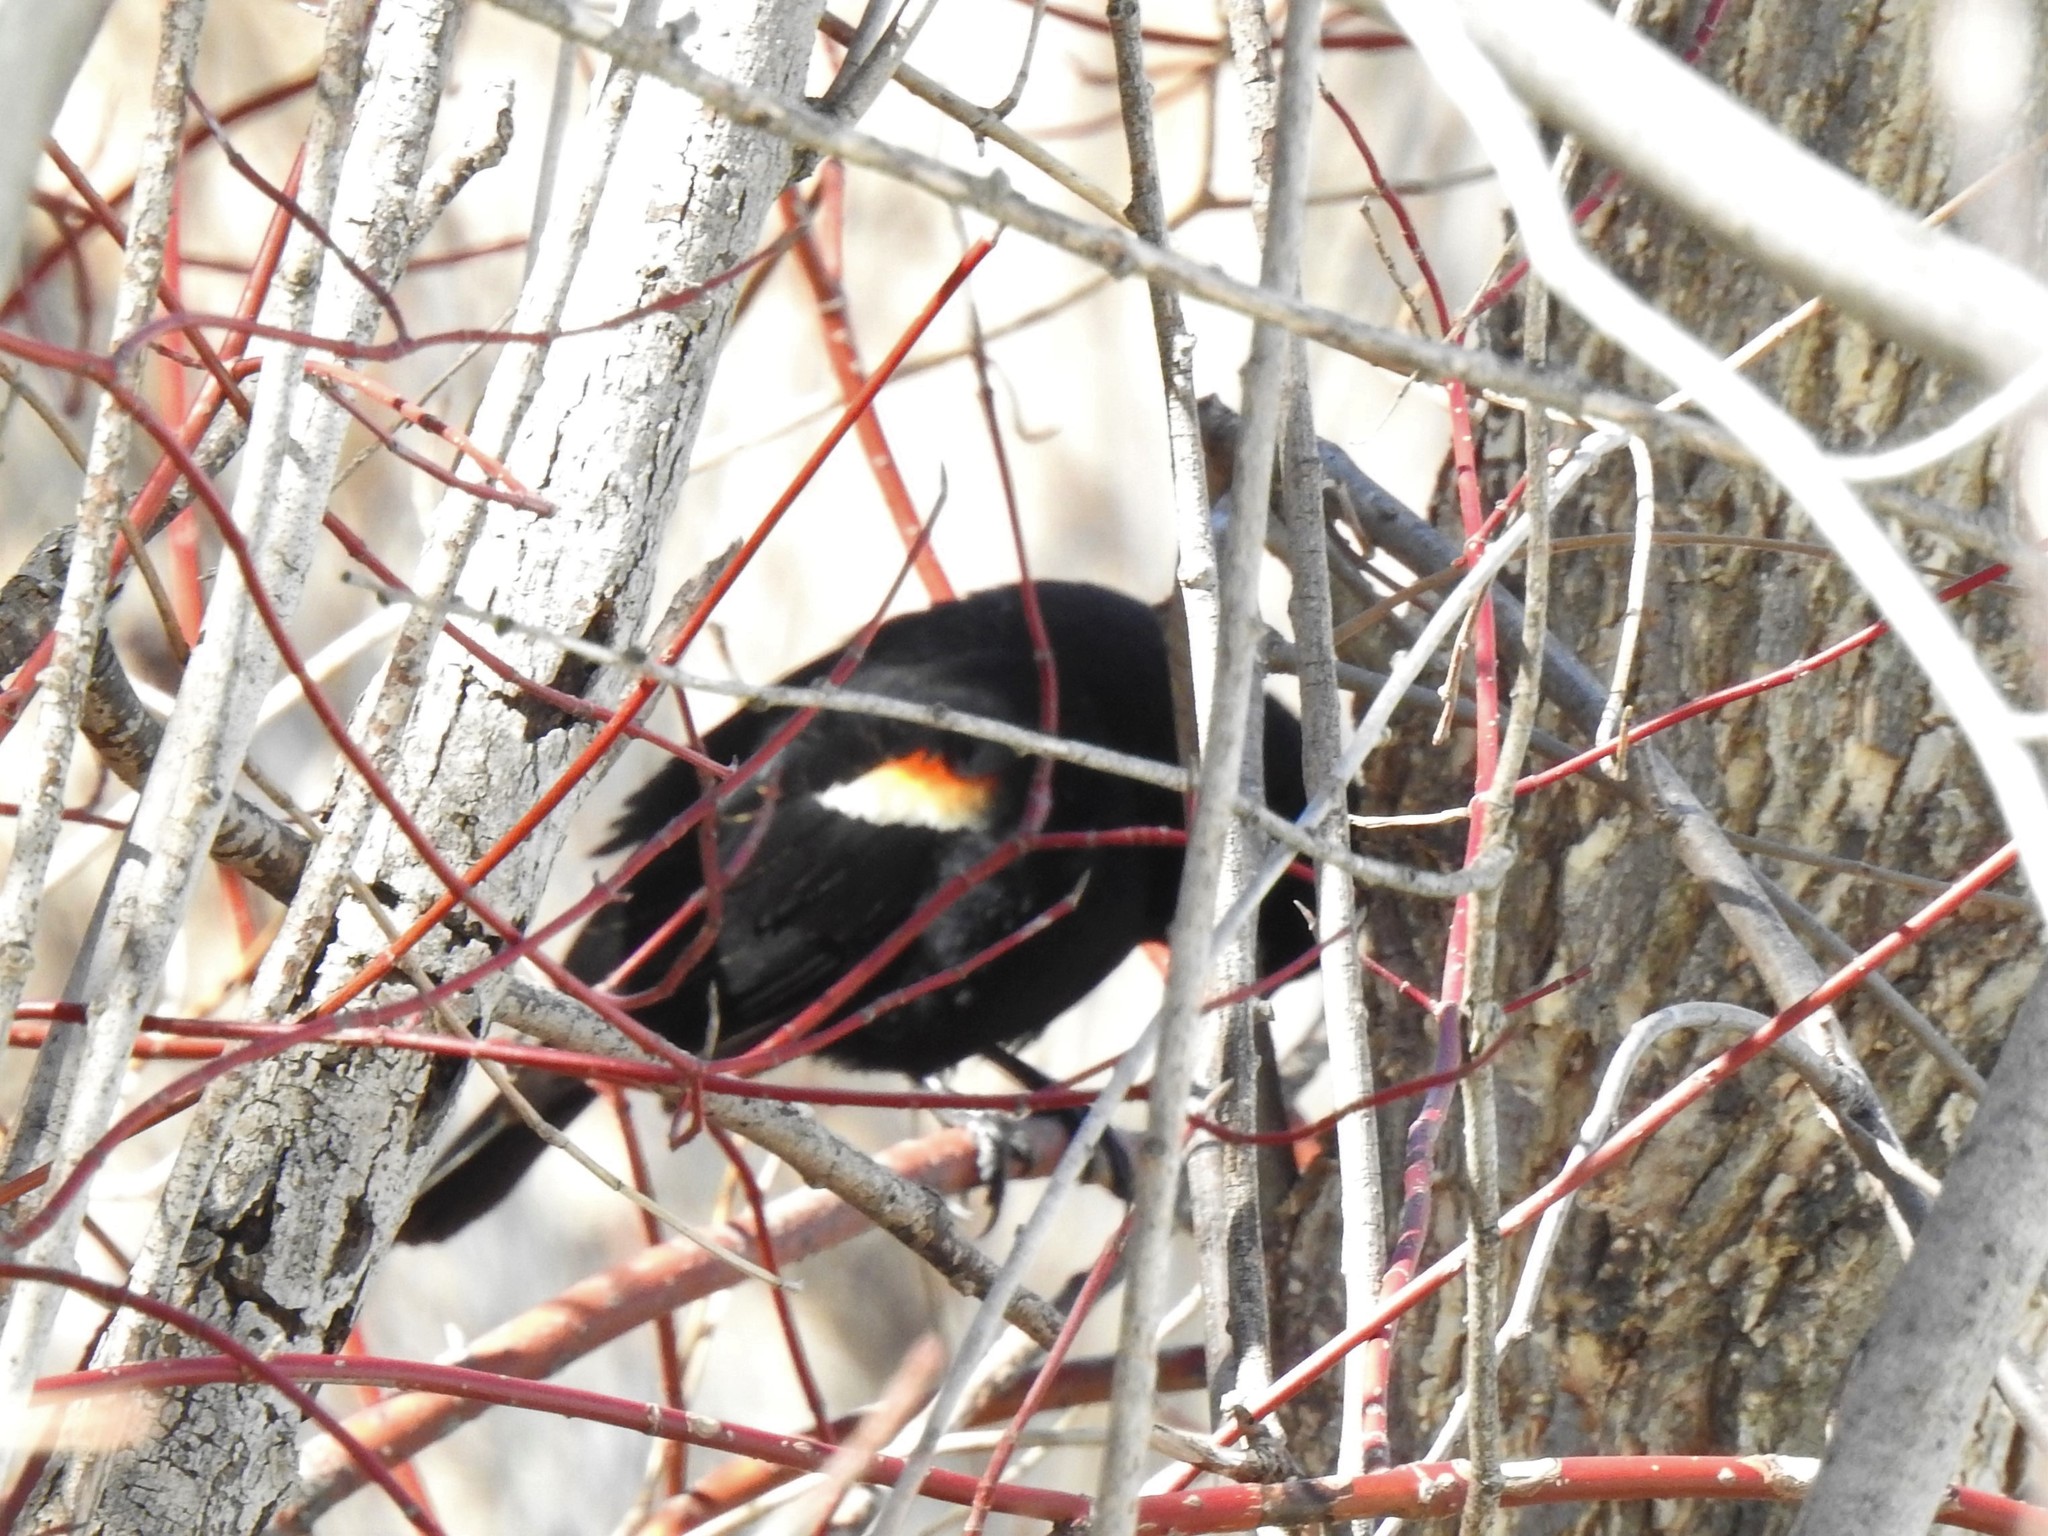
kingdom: Animalia
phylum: Chordata
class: Aves
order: Passeriformes
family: Icteridae
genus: Agelaius
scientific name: Agelaius phoeniceus
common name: Red-winged blackbird
